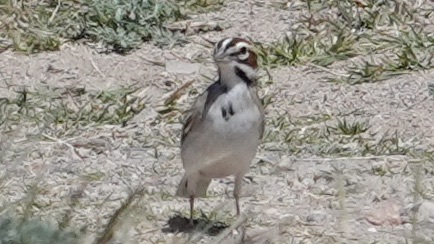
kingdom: Animalia
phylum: Chordata
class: Aves
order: Passeriformes
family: Passerellidae
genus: Chondestes
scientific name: Chondestes grammacus
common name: Lark sparrow
